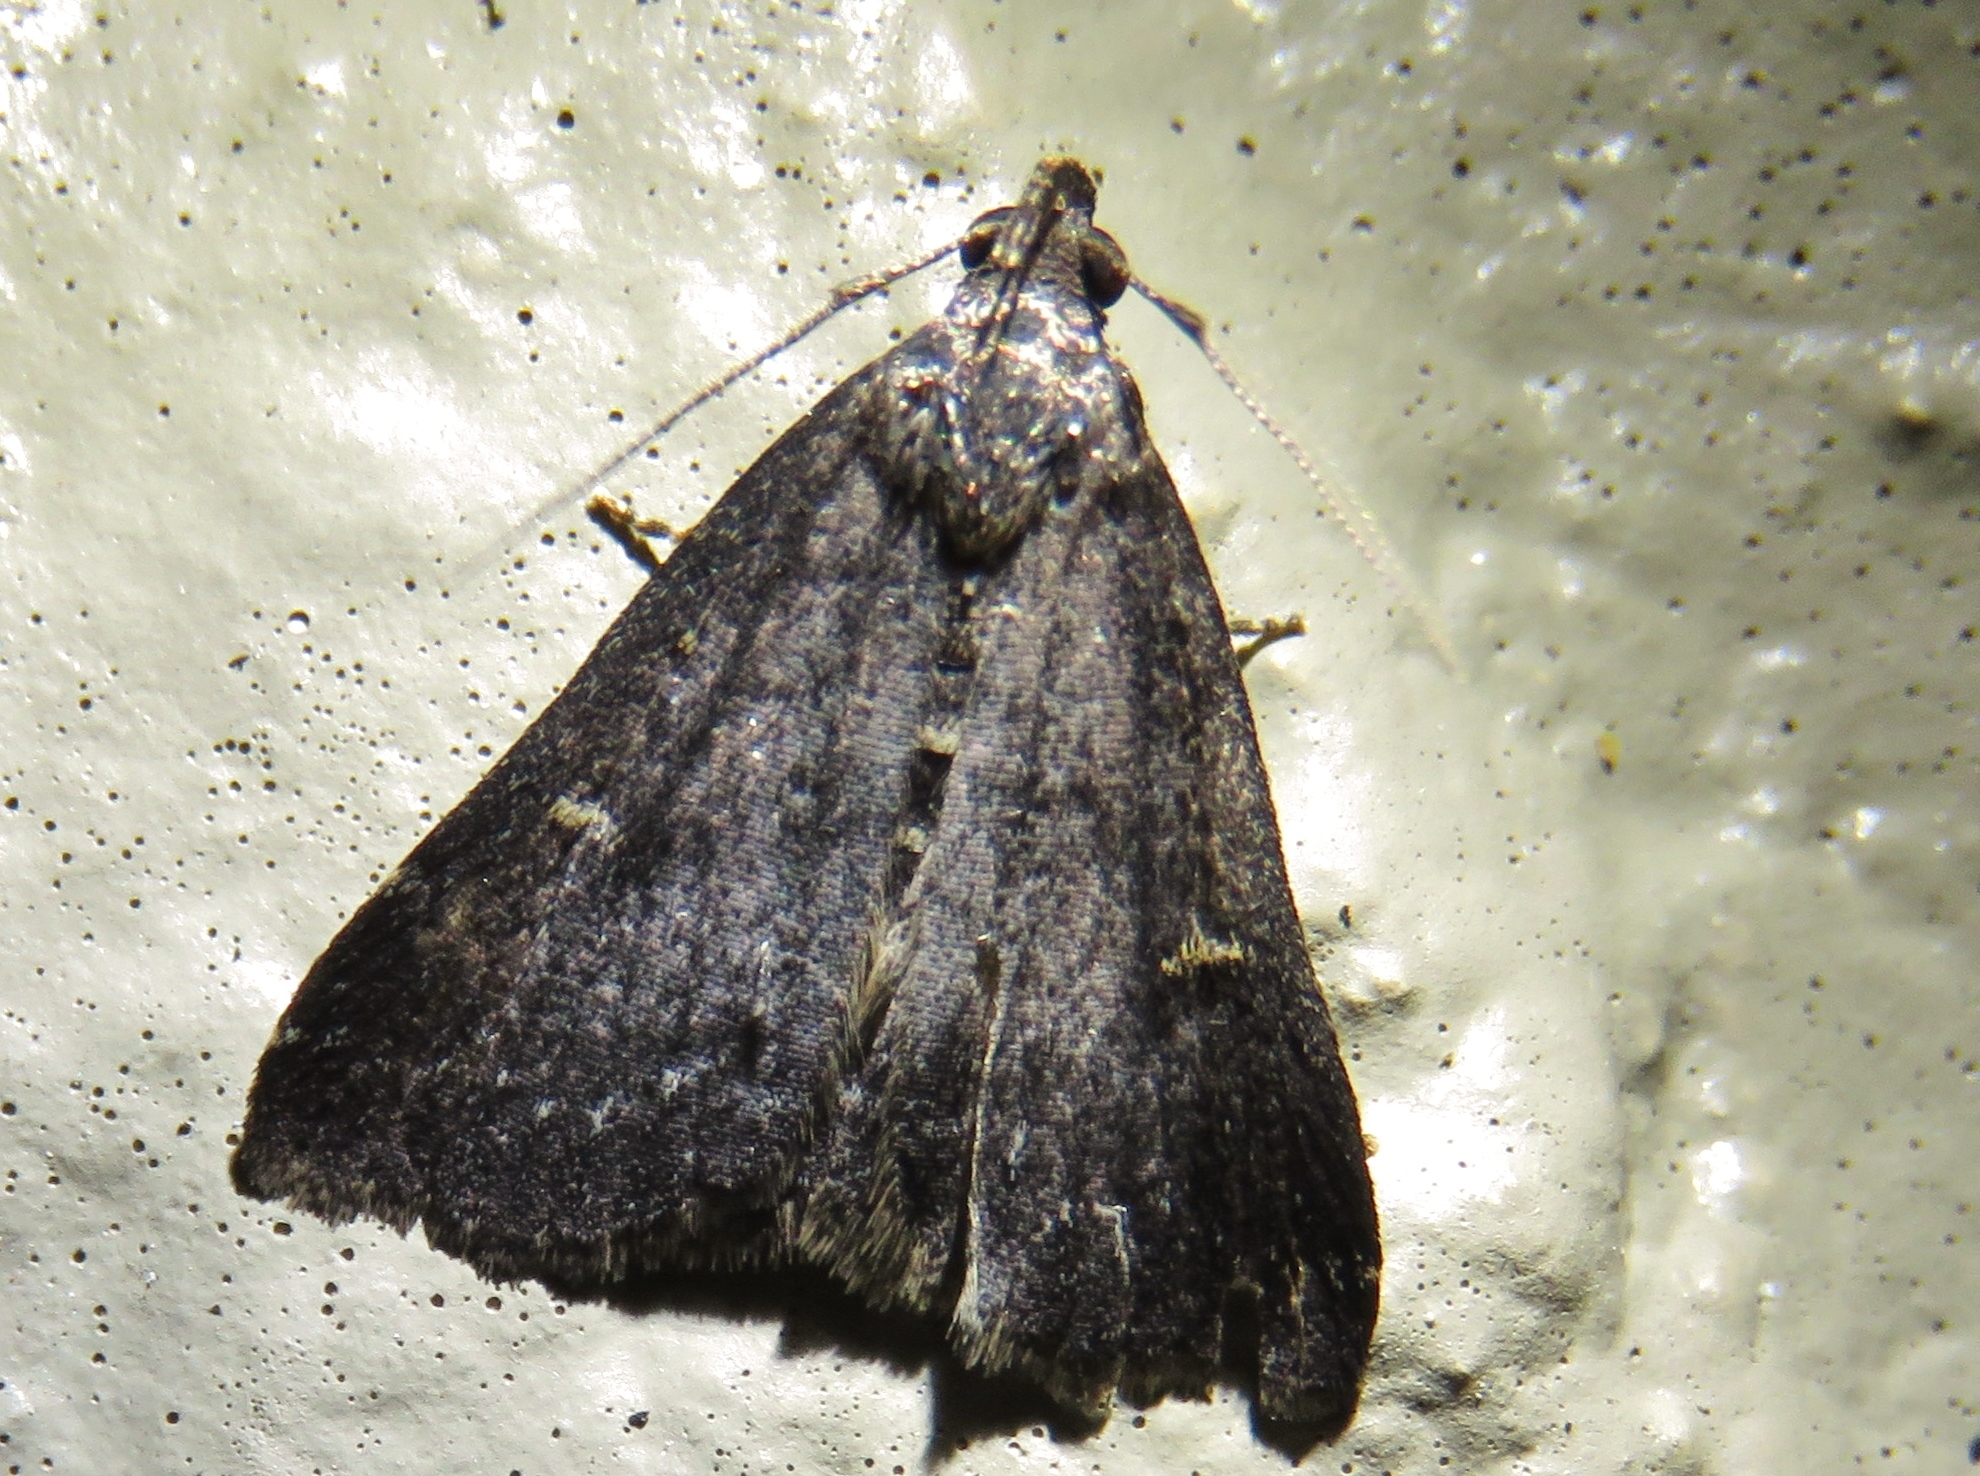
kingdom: Animalia
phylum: Arthropoda
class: Insecta
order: Lepidoptera
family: Erebidae
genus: Tetanolita
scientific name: Tetanolita mynesalis
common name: Smoky tetanolita moth
